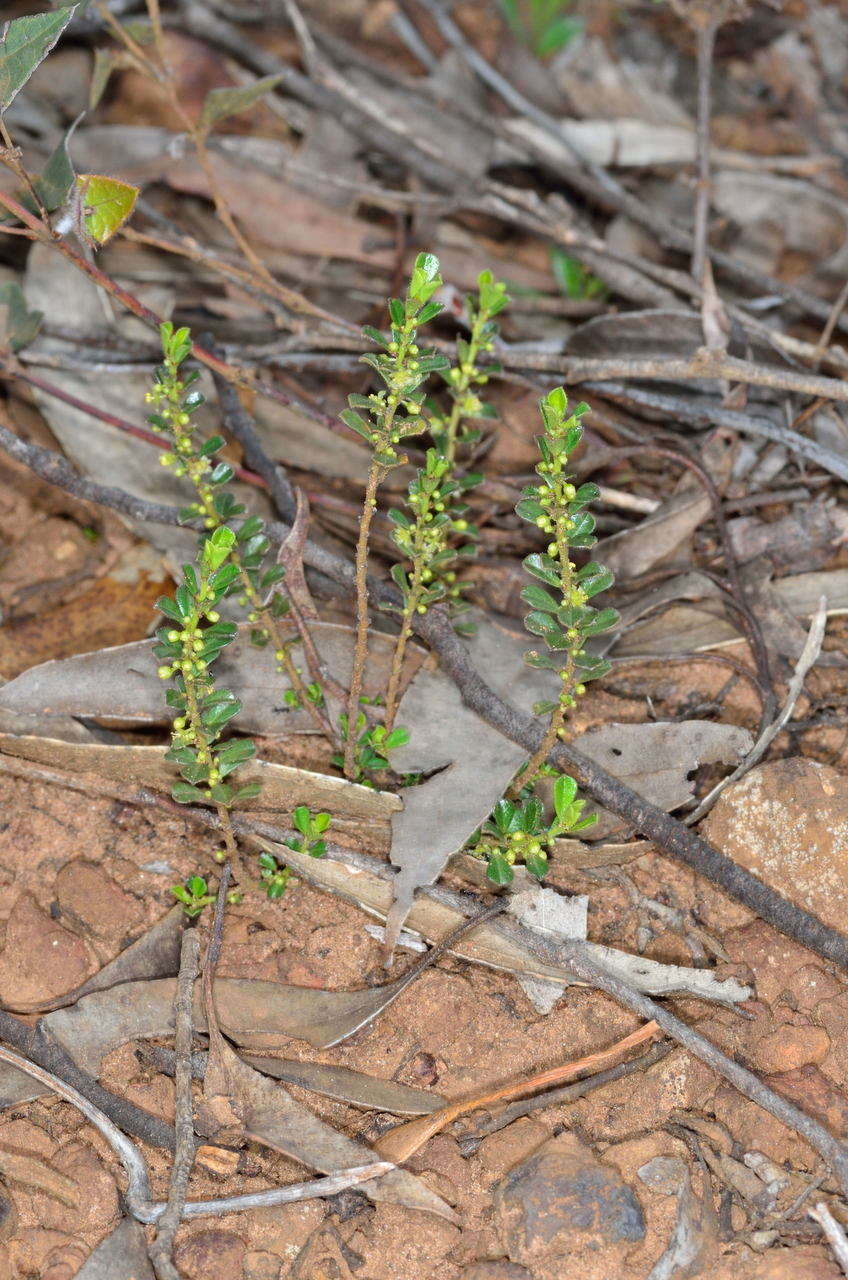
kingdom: Plantae
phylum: Tracheophyta
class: Magnoliopsida
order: Malpighiales
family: Phyllanthaceae
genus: Phyllanthus
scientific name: Phyllanthus hirtellus
